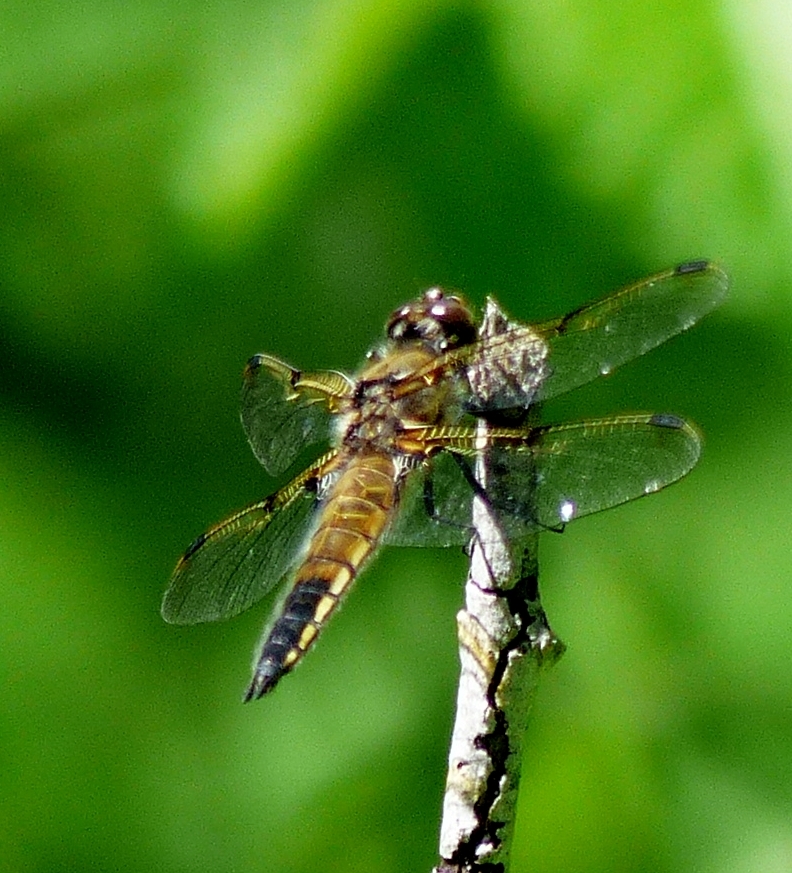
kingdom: Animalia
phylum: Arthropoda
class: Insecta
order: Odonata
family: Libellulidae
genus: Libellula
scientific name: Libellula quadrimaculata
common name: Four-spotted chaser
